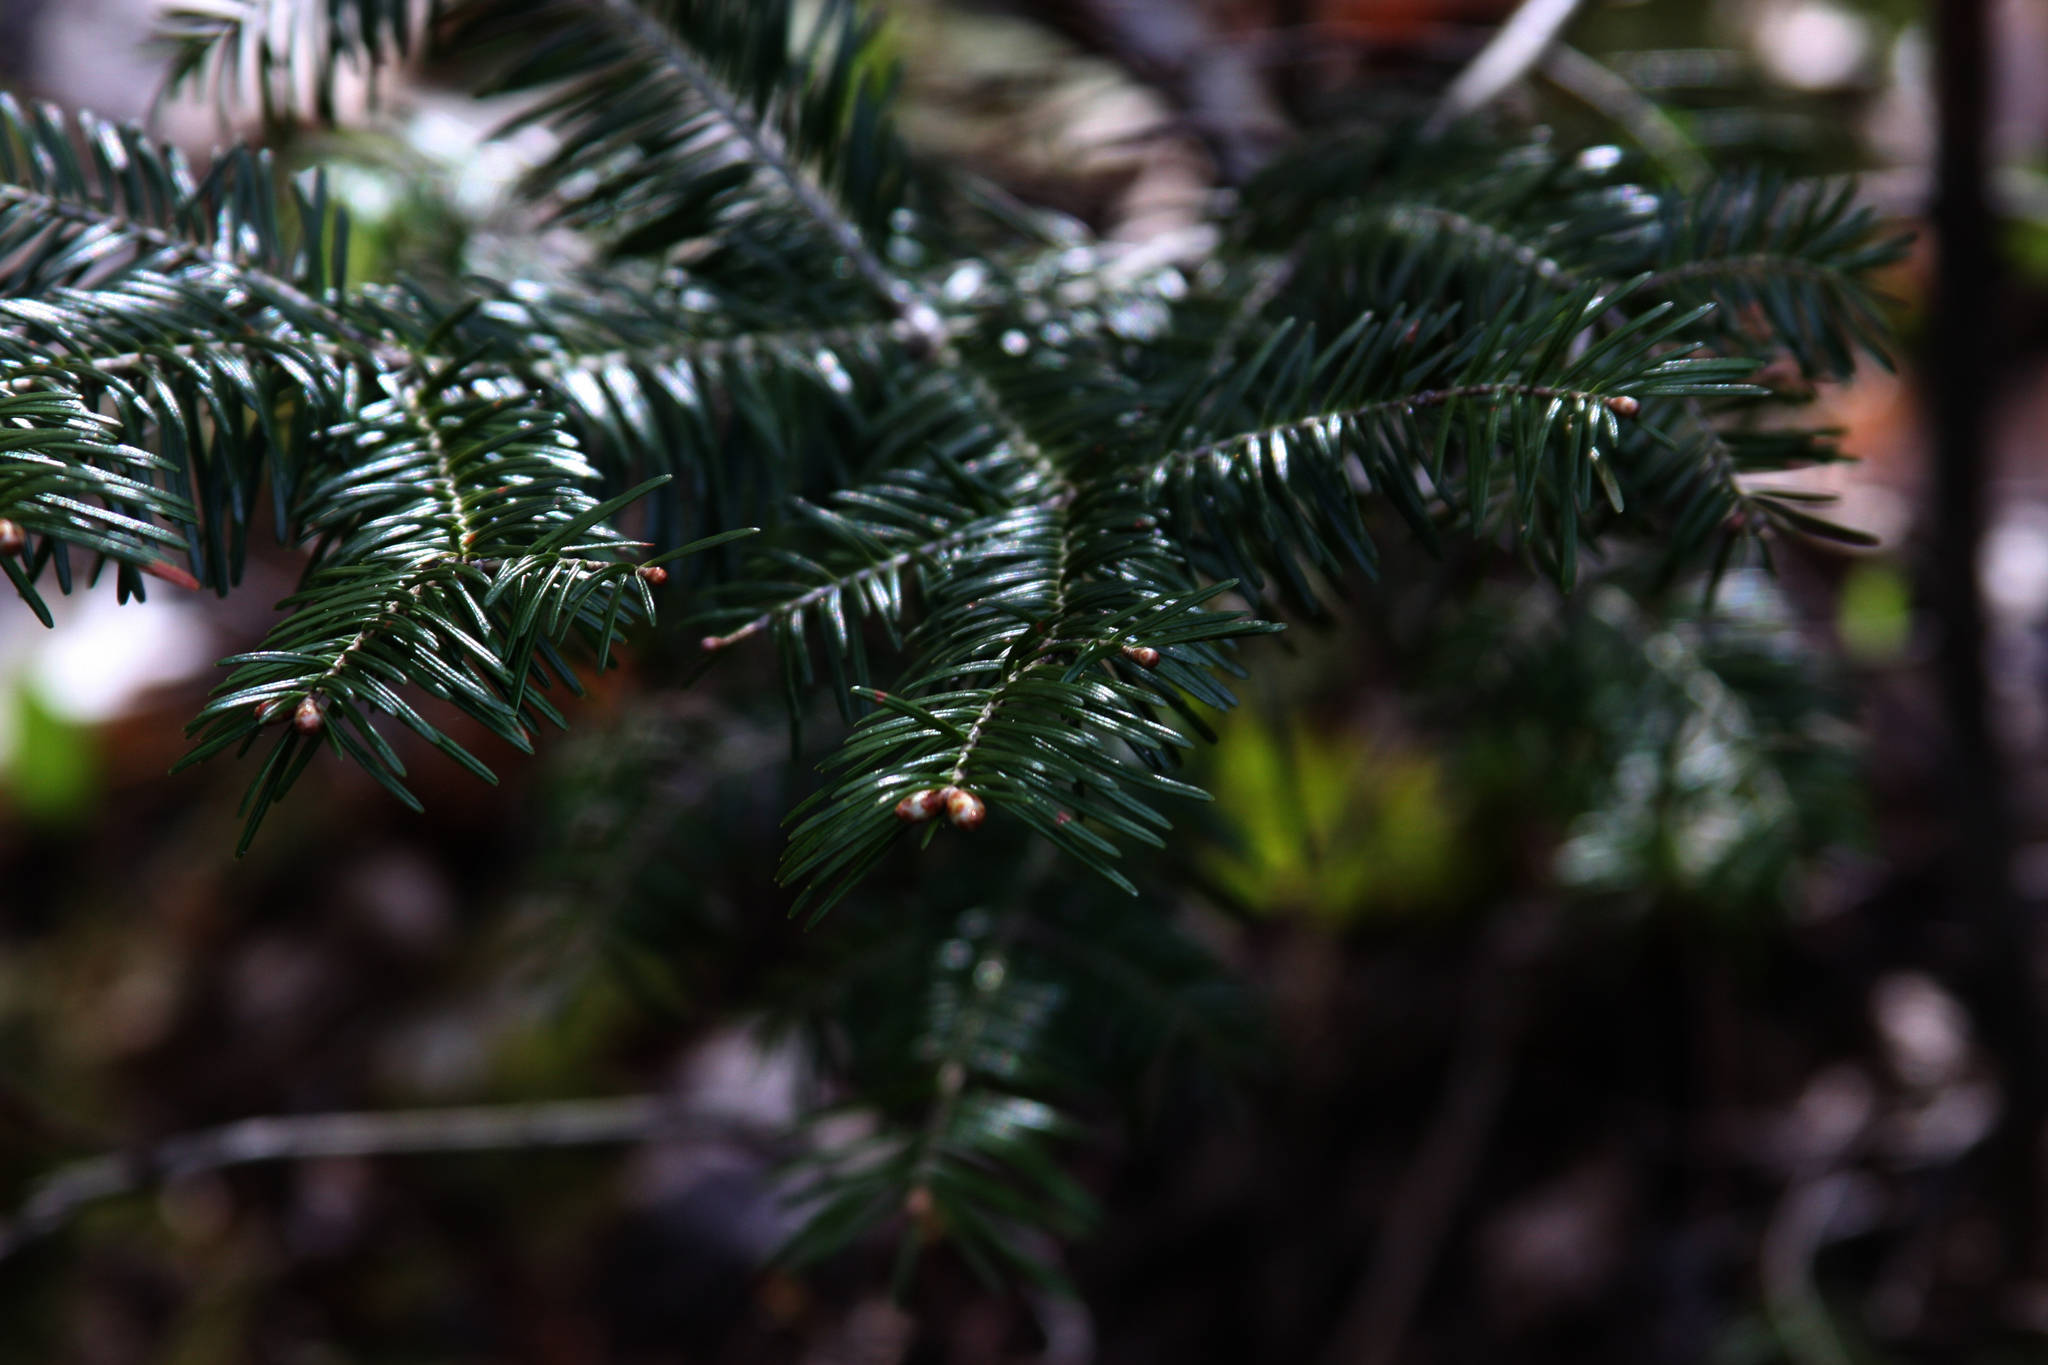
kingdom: Plantae
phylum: Tracheophyta
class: Pinopsida
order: Pinales
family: Pinaceae
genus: Abies
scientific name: Abies balsamea
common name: Balsam fir
